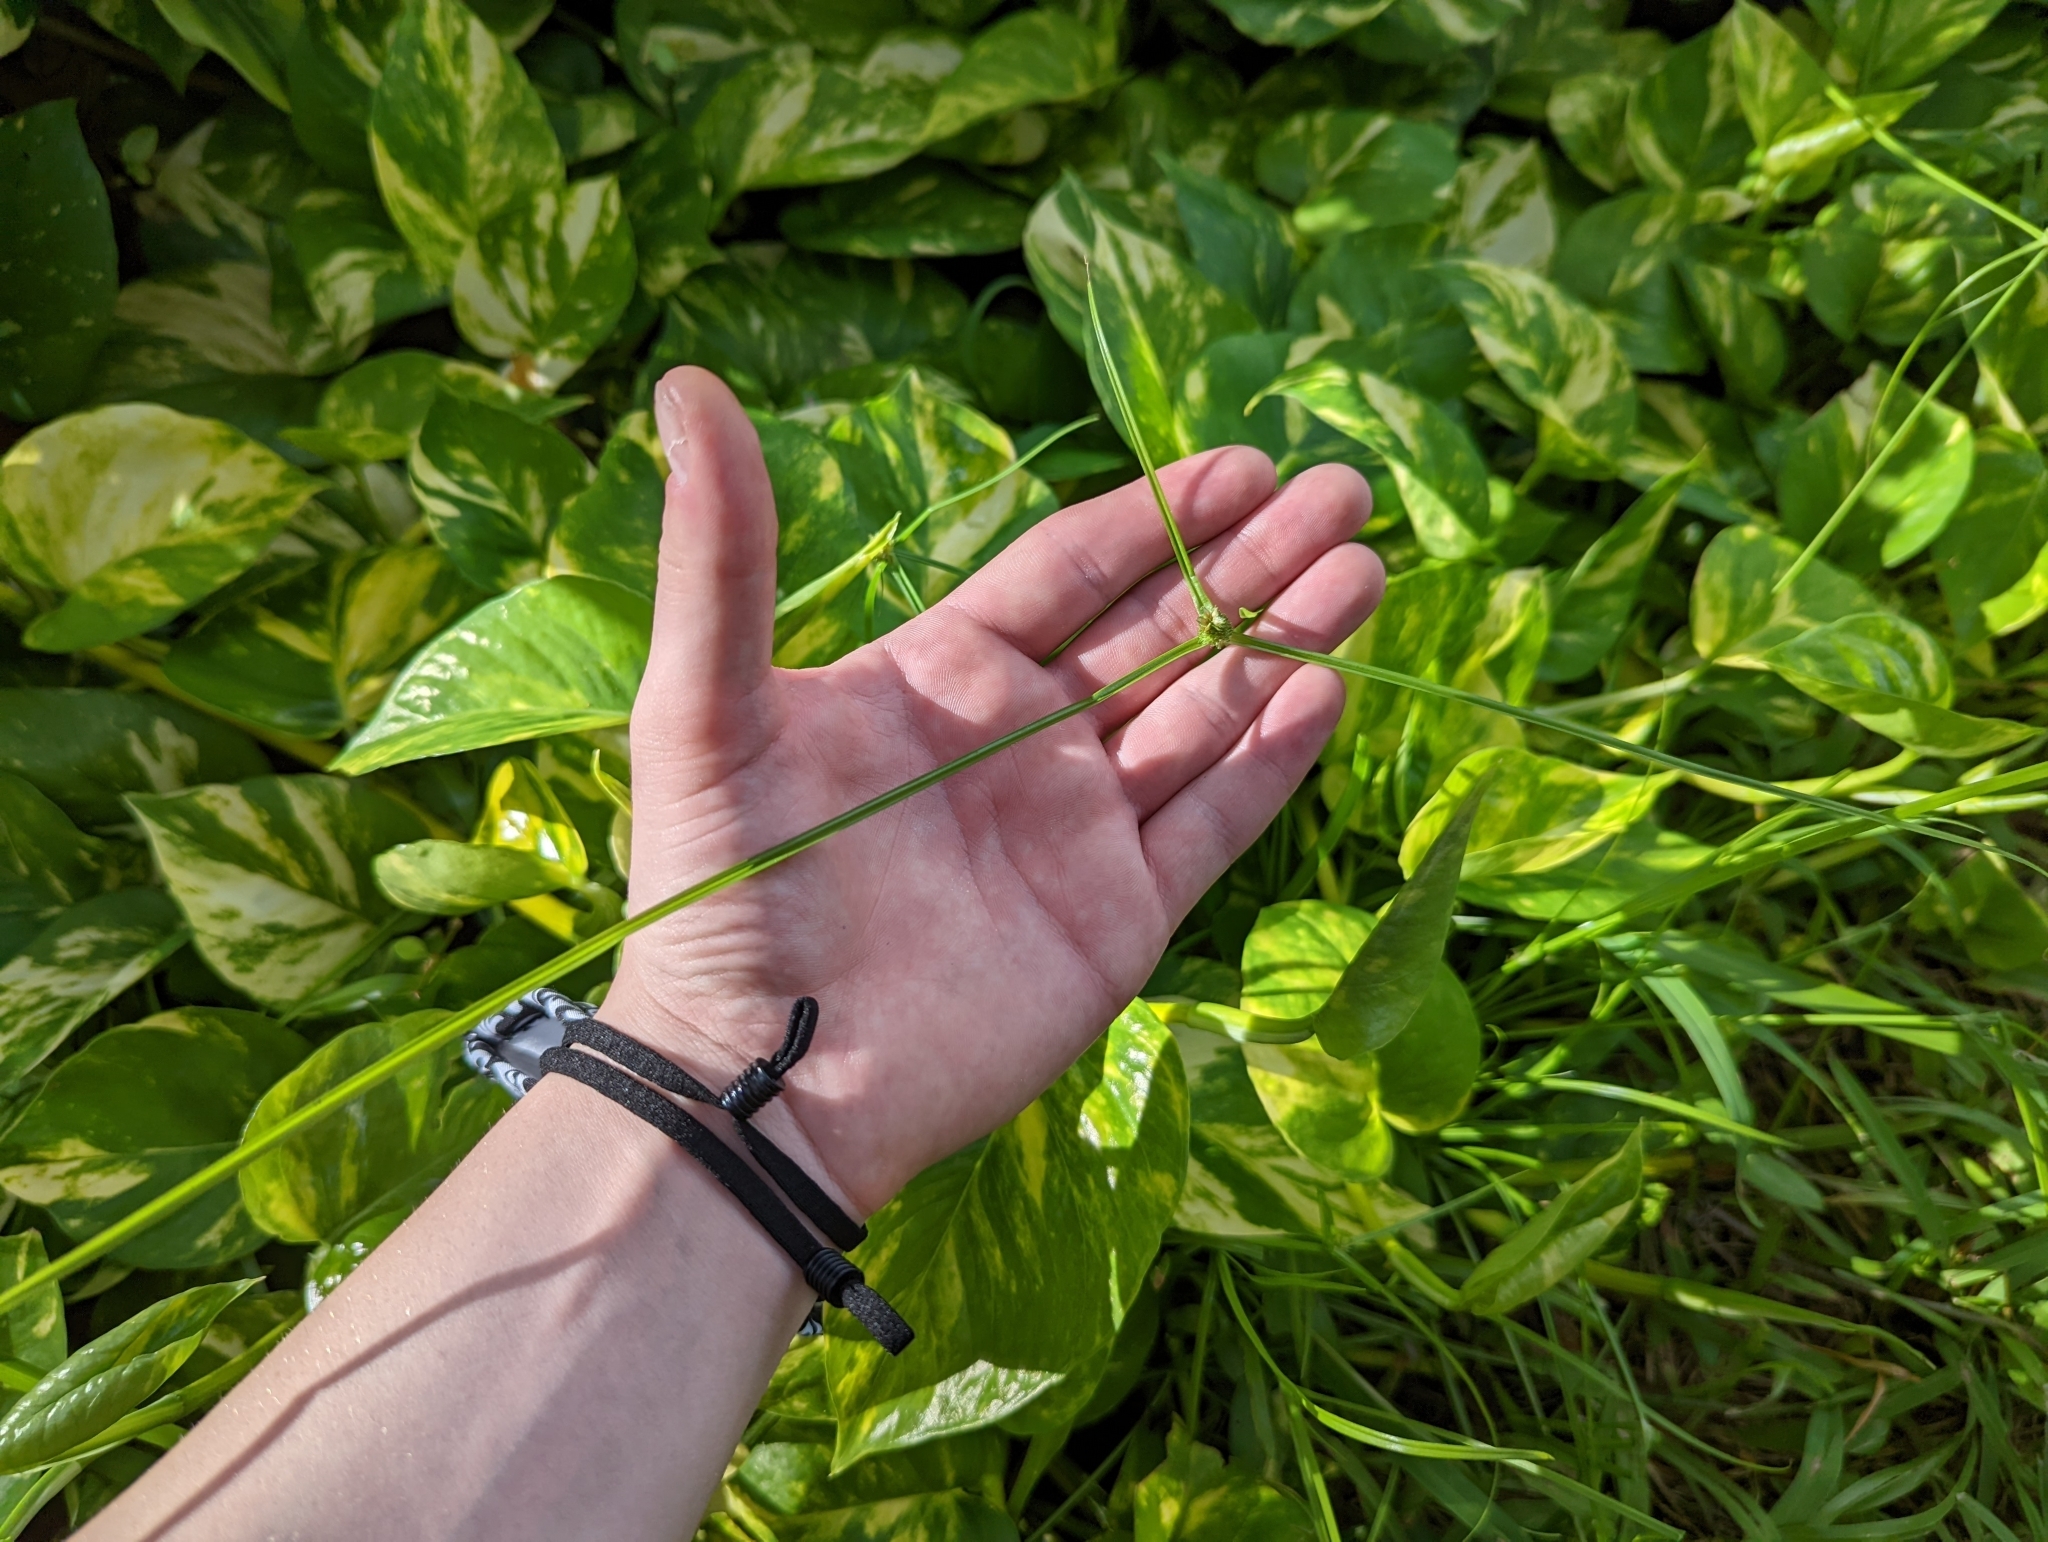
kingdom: Plantae
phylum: Tracheophyta
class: Liliopsida
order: Poales
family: Cyperaceae
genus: Cyperus
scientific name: Cyperus metzii
